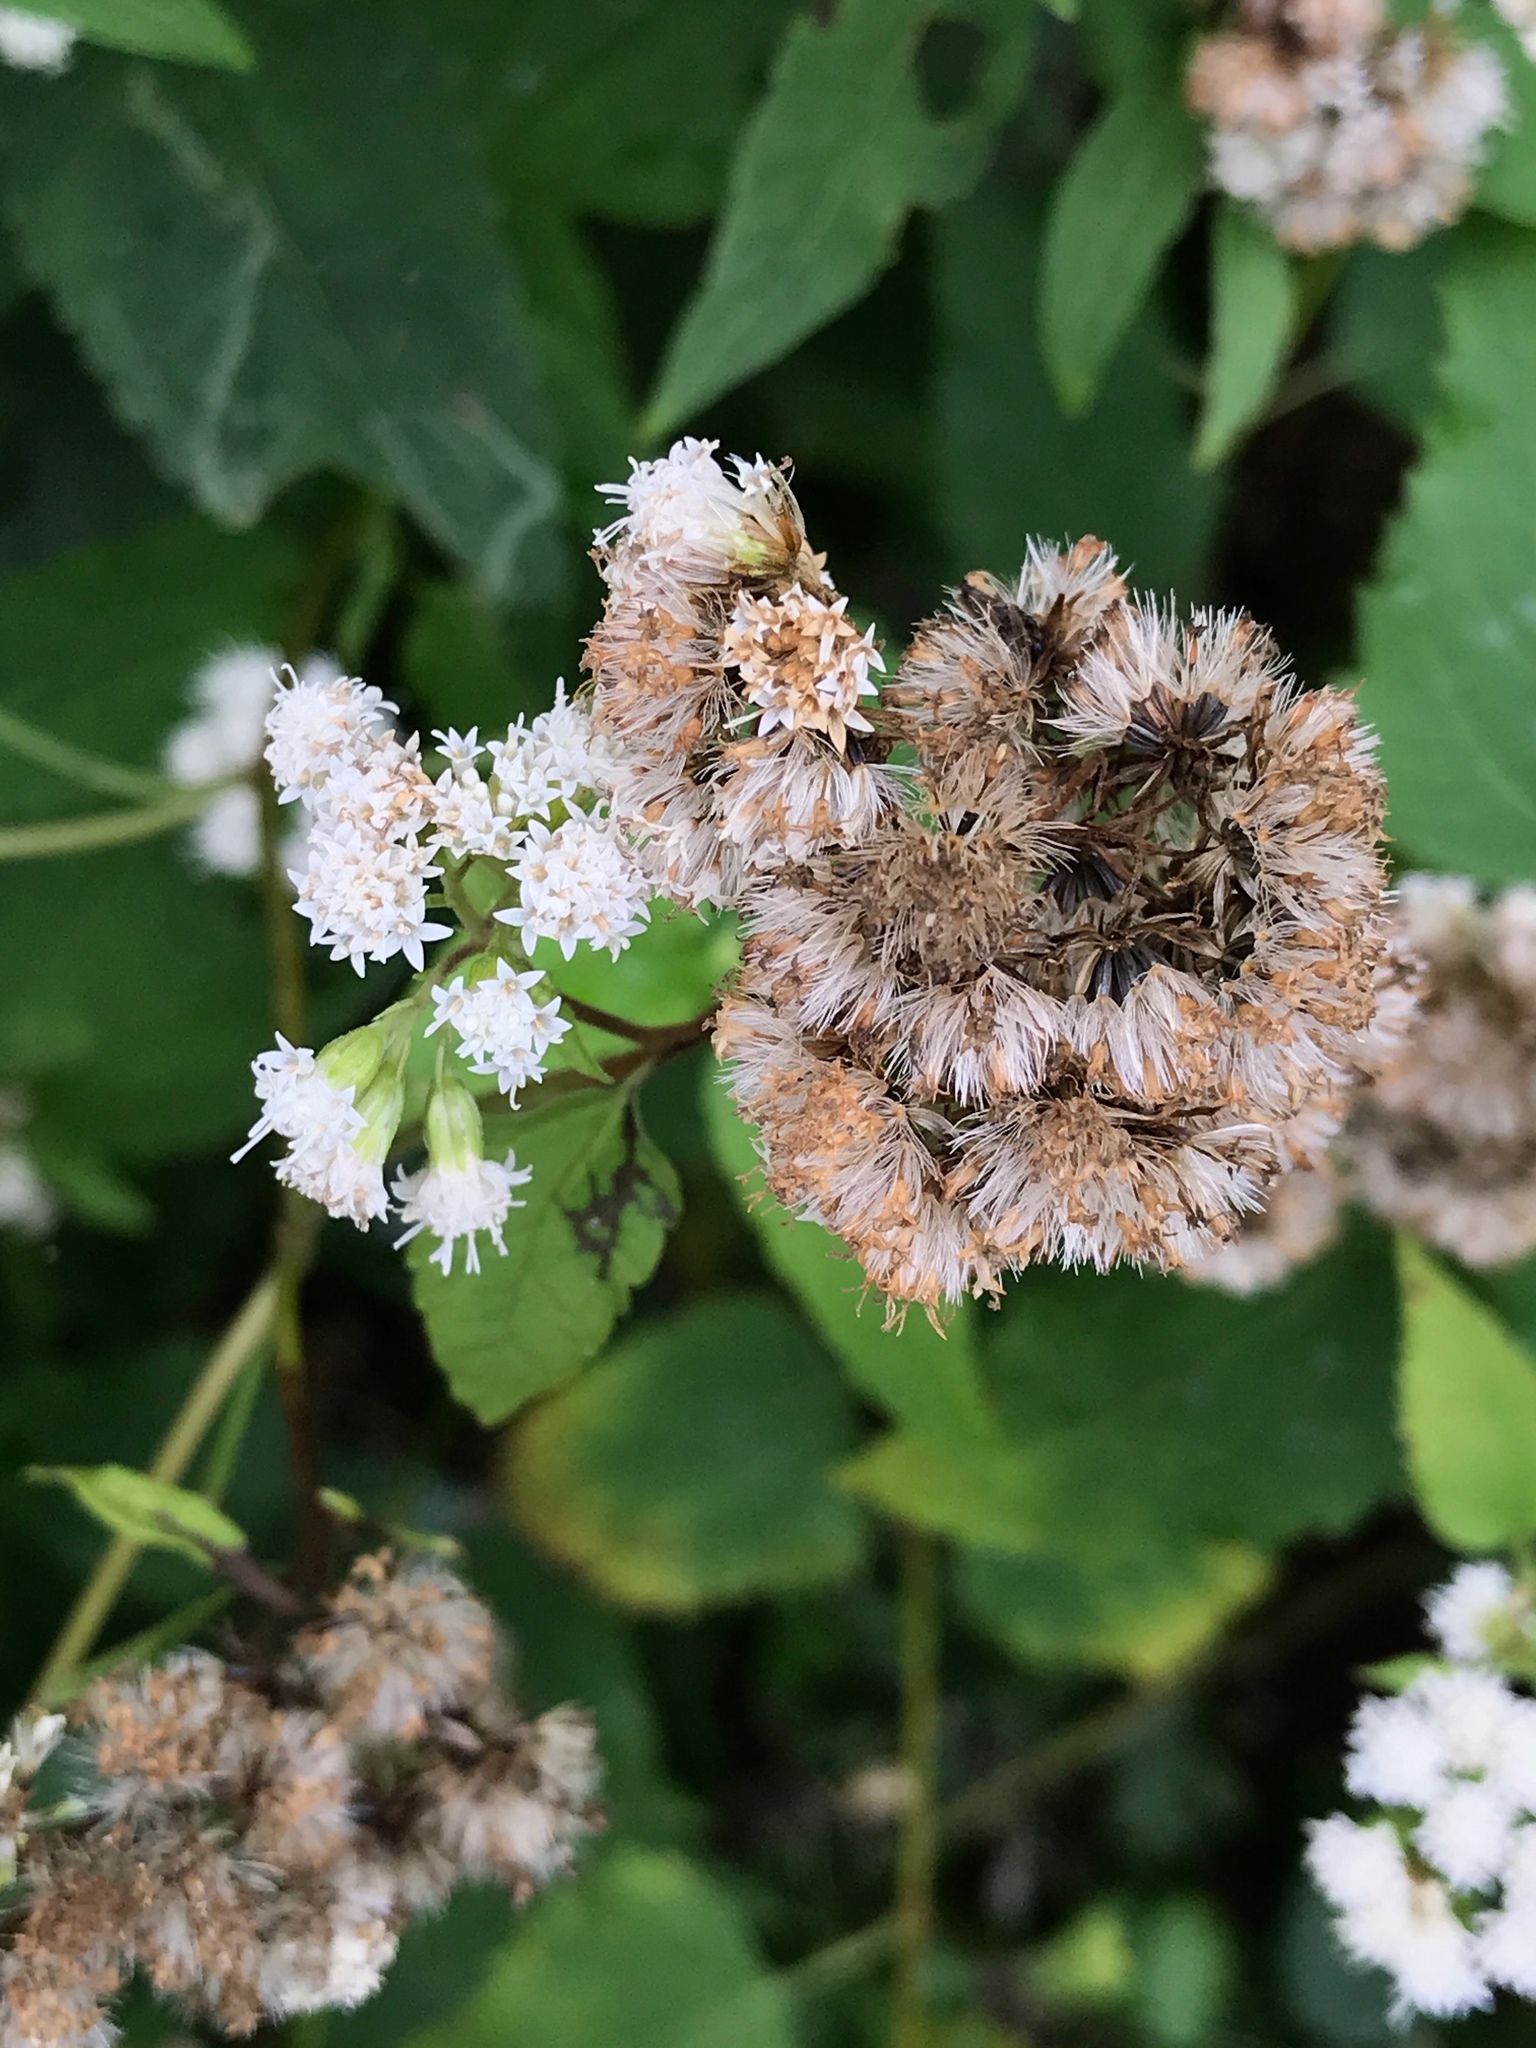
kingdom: Plantae
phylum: Tracheophyta
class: Magnoliopsida
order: Asterales
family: Asteraceae
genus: Ageratina
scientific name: Ageratina altissima
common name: White snakeroot
